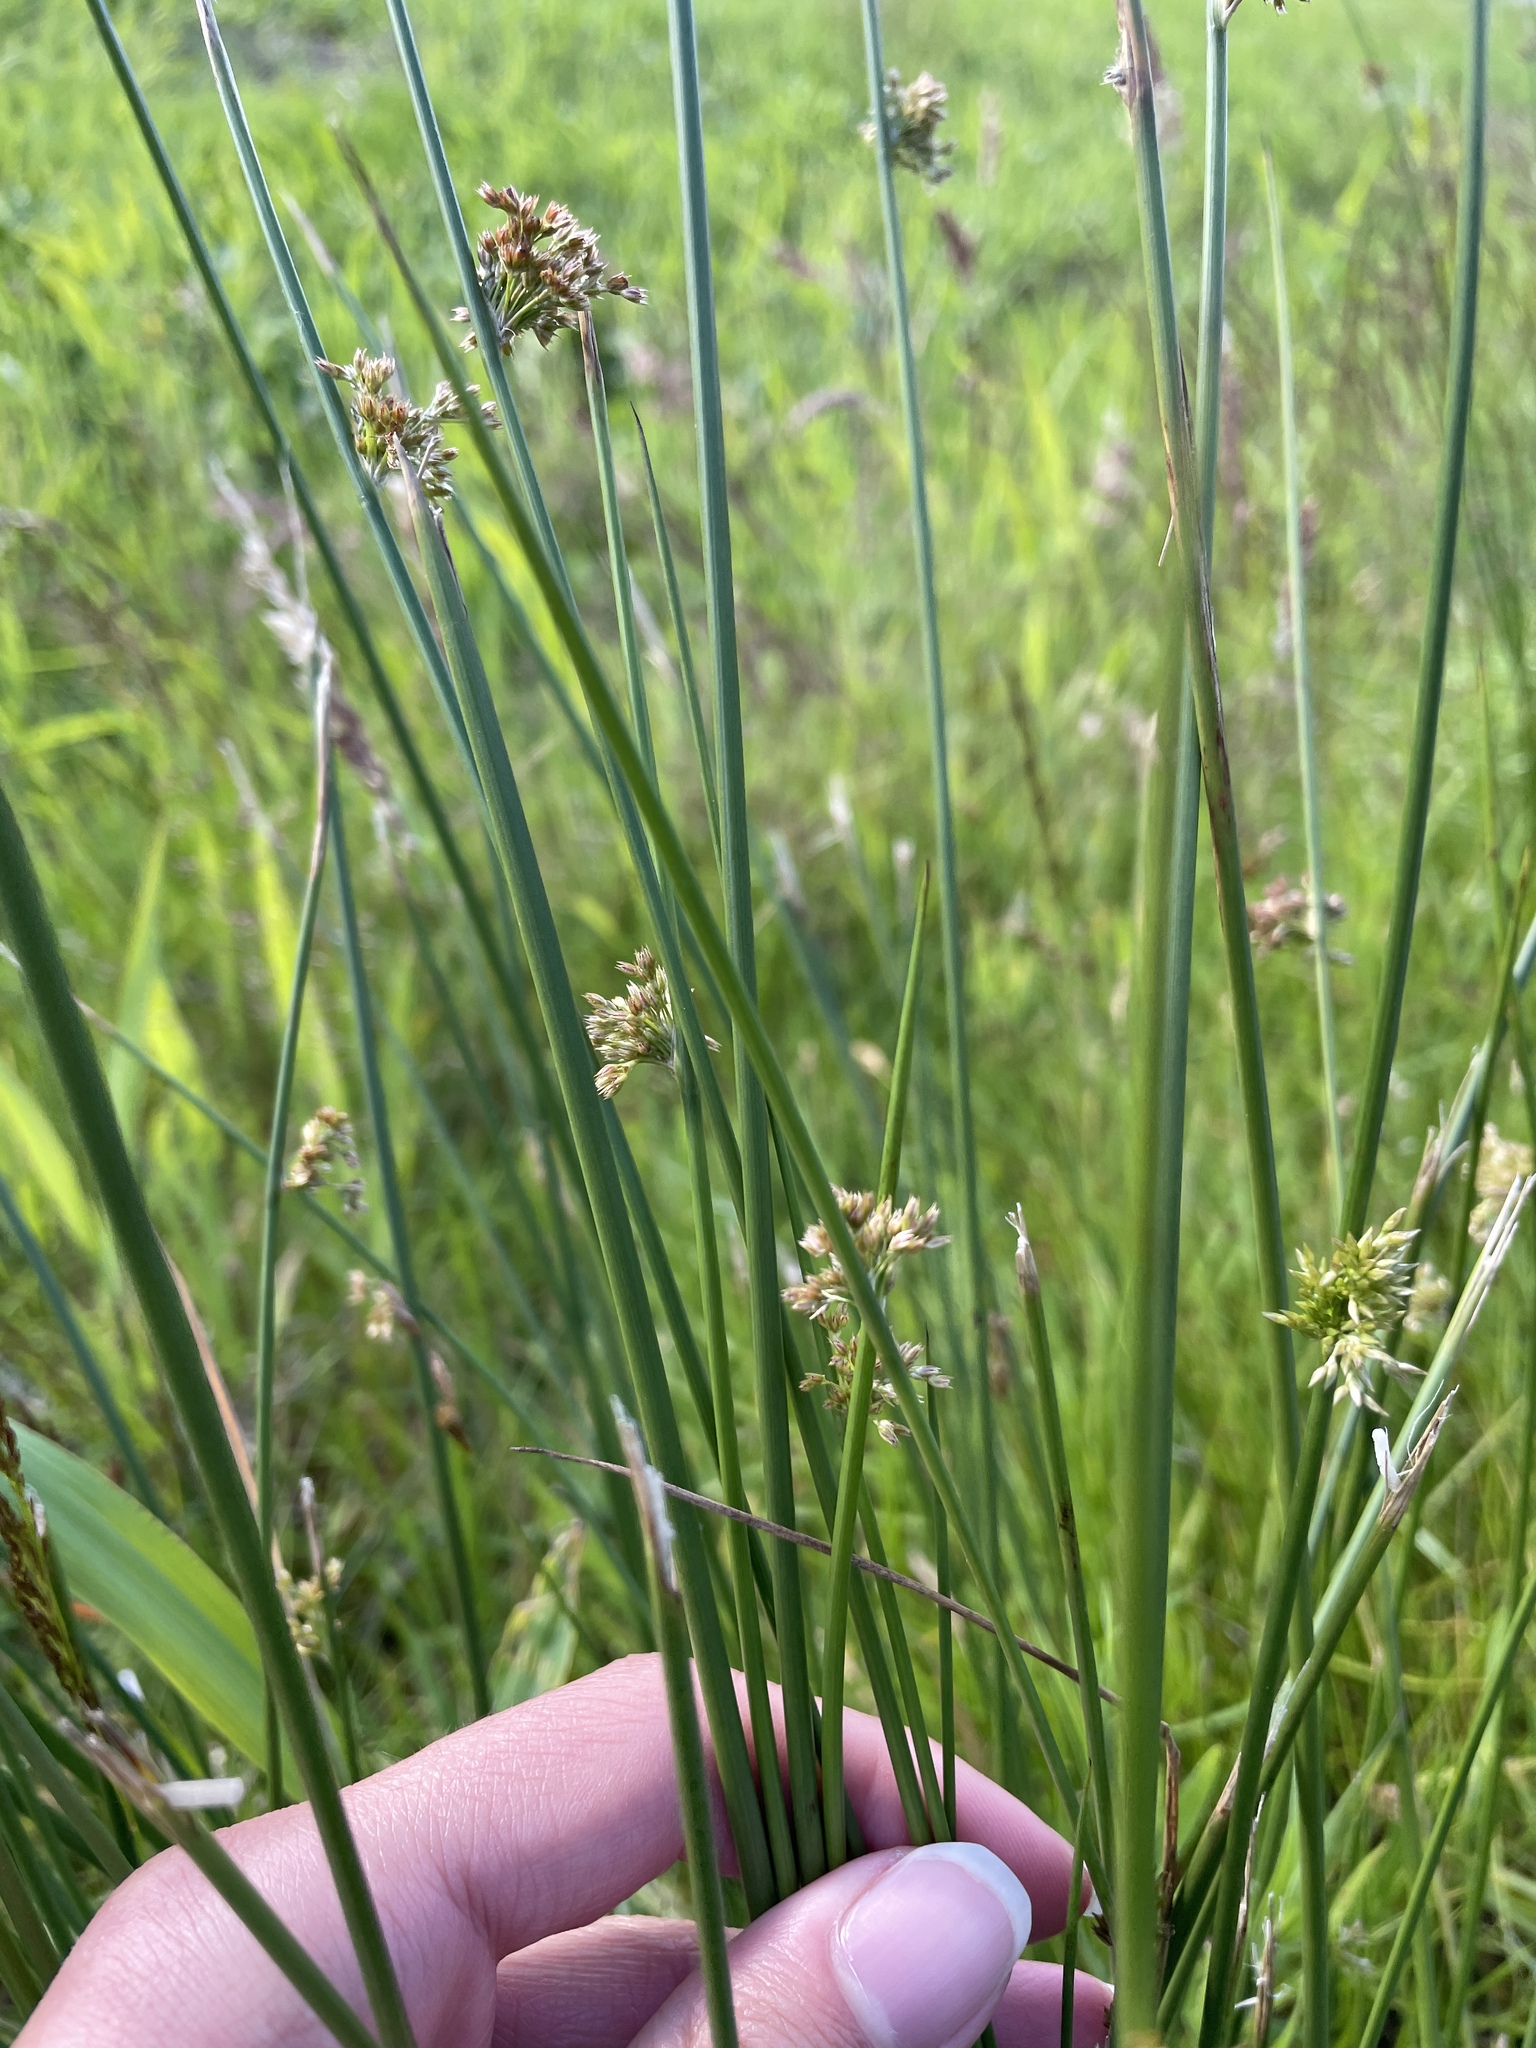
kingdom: Plantae
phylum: Tracheophyta
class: Liliopsida
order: Poales
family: Juncaceae
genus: Juncus
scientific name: Juncus effusus
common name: Soft rush
